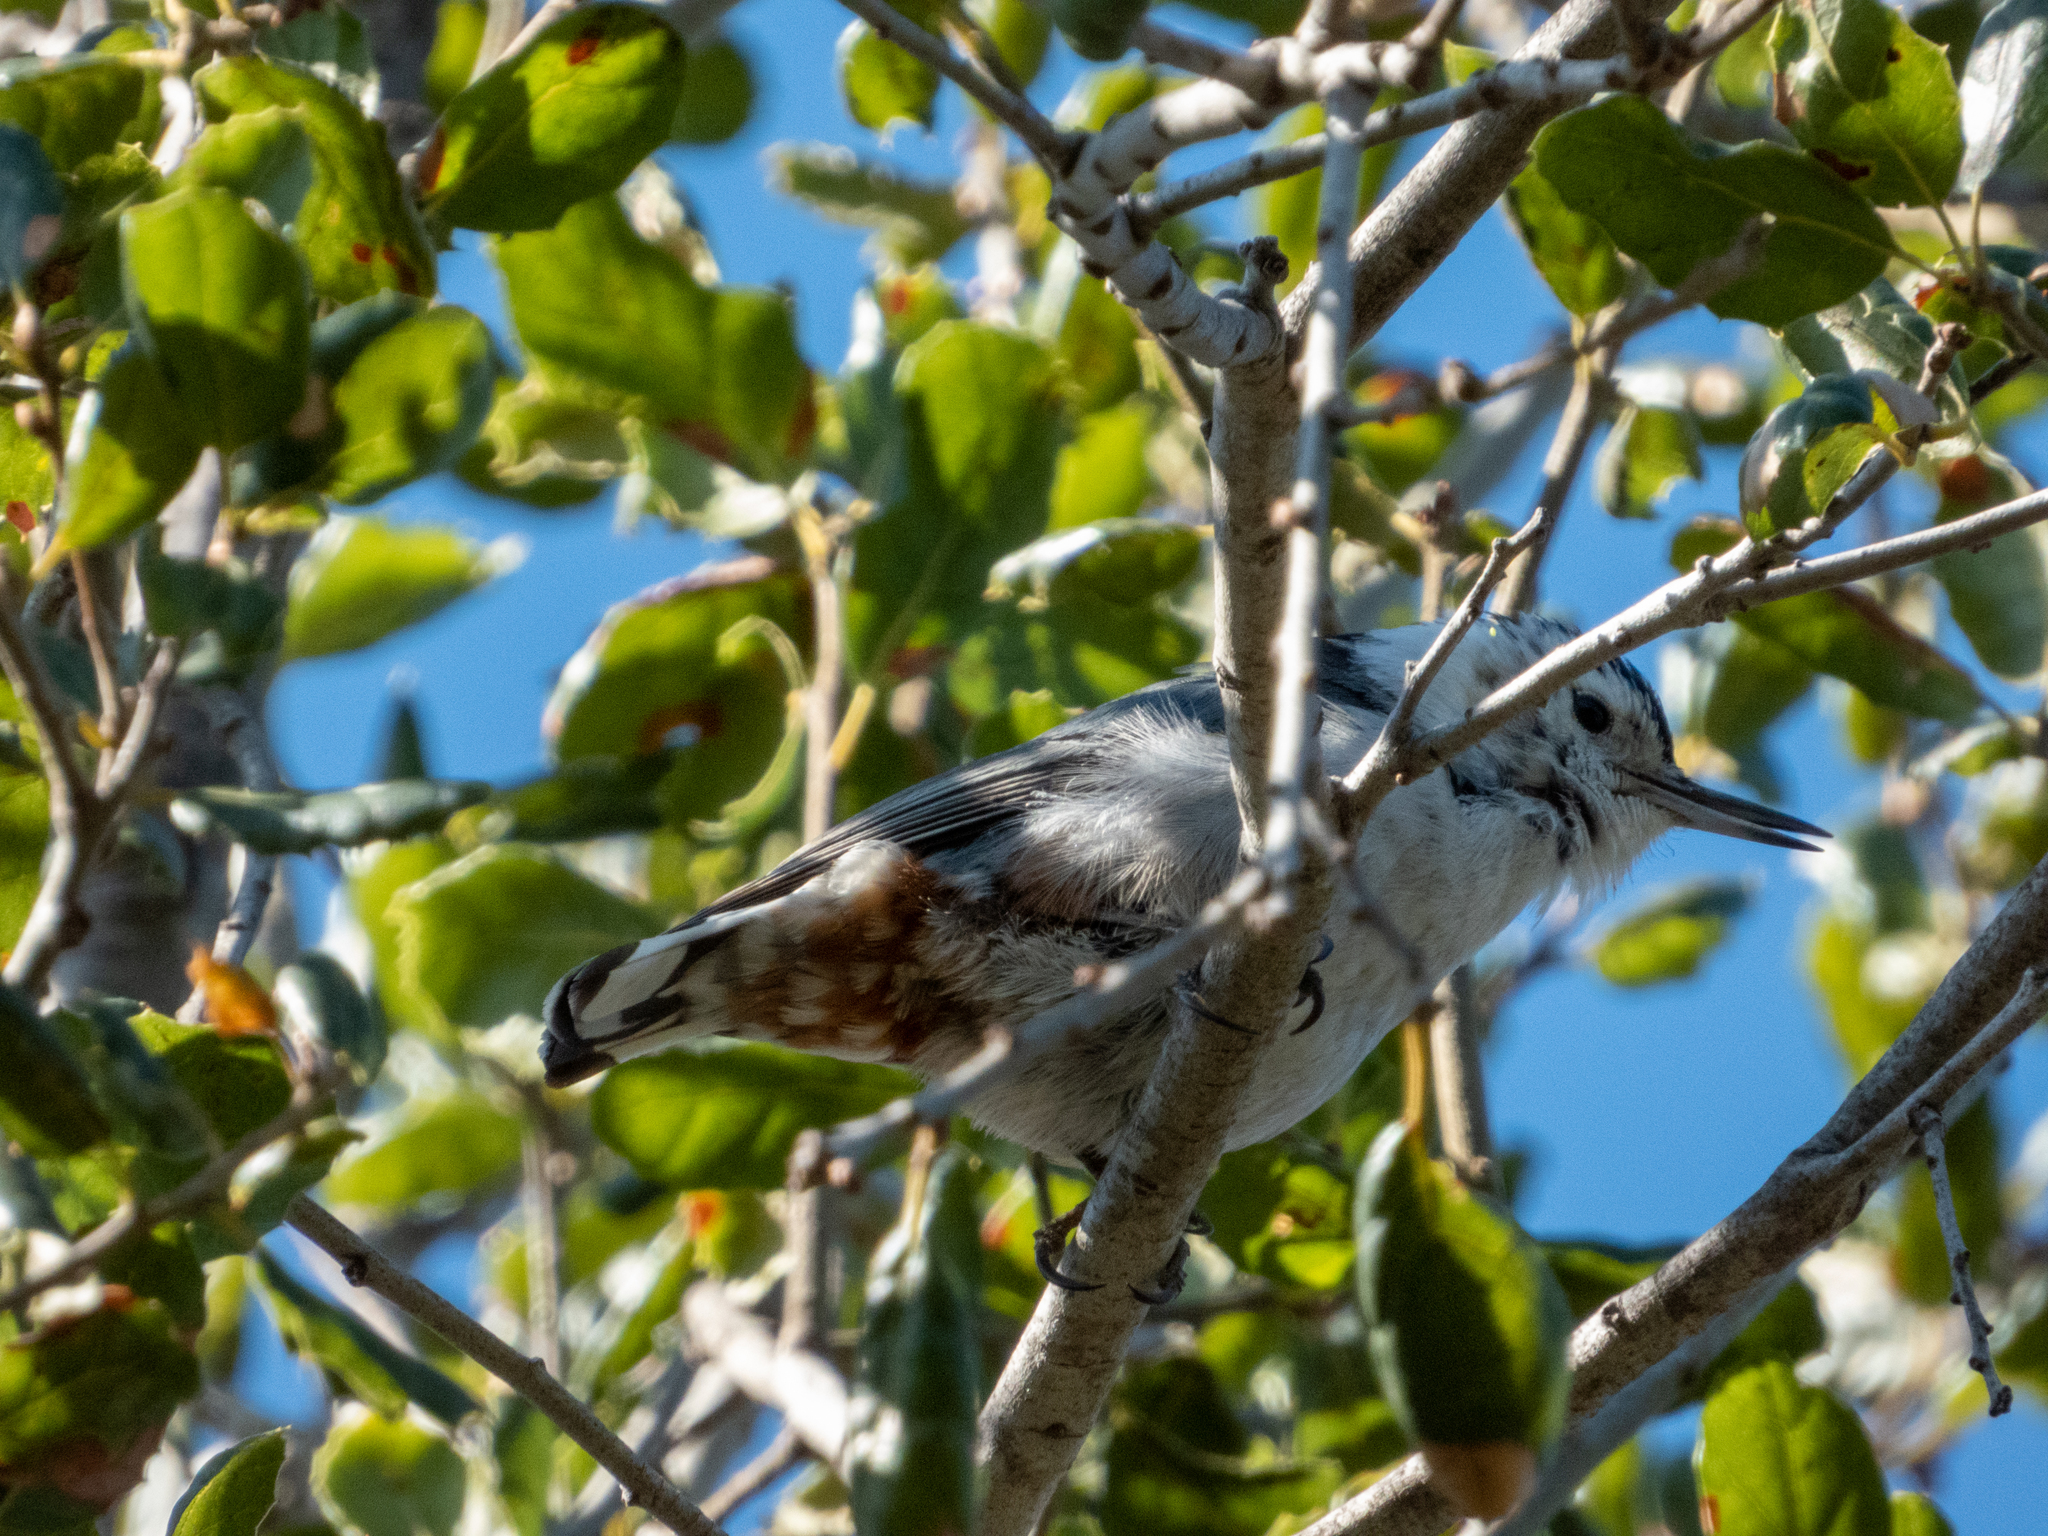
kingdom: Animalia
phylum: Chordata
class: Aves
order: Passeriformes
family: Sittidae
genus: Sitta
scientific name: Sitta carolinensis
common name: White-breasted nuthatch
